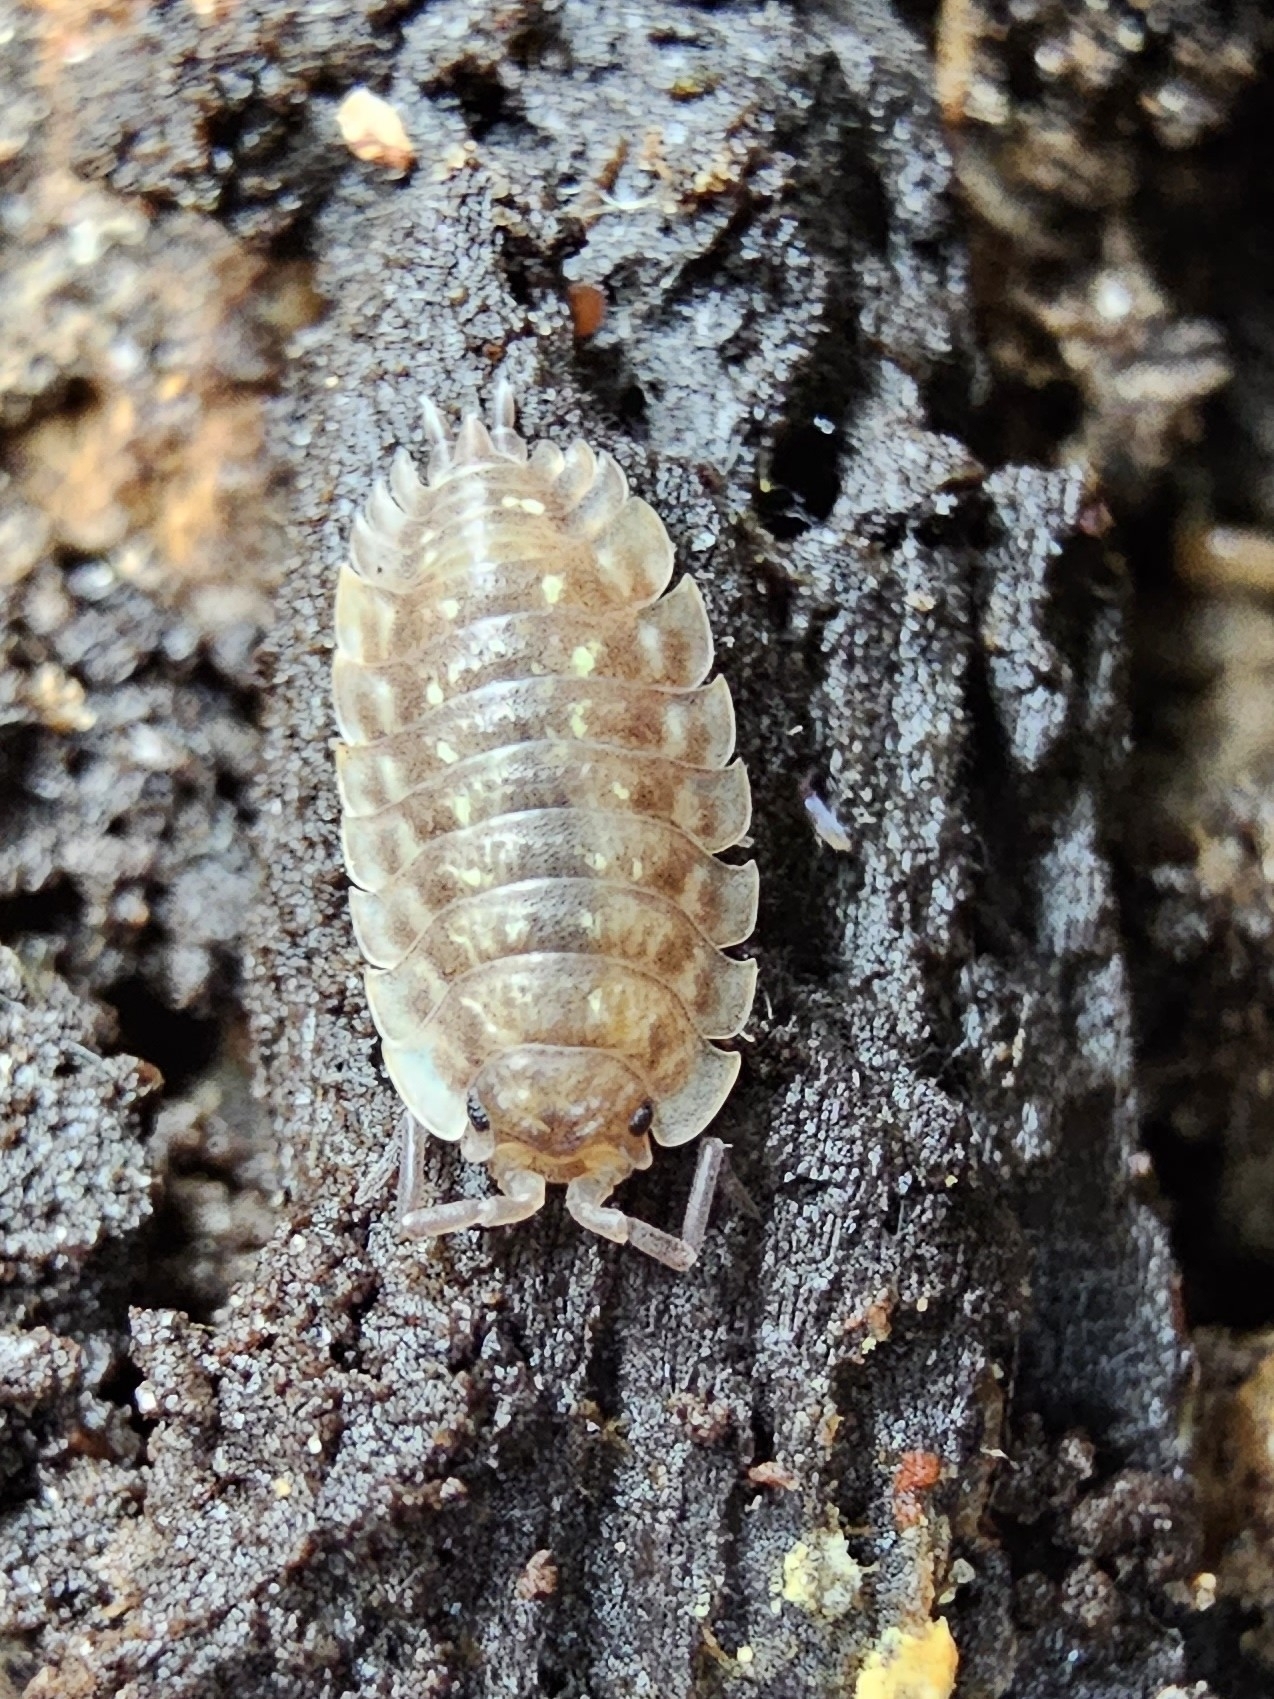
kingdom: Animalia
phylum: Arthropoda
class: Malacostraca
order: Isopoda
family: Oniscidae
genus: Oniscus
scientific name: Oniscus asellus
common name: Common shiny woodlouse
